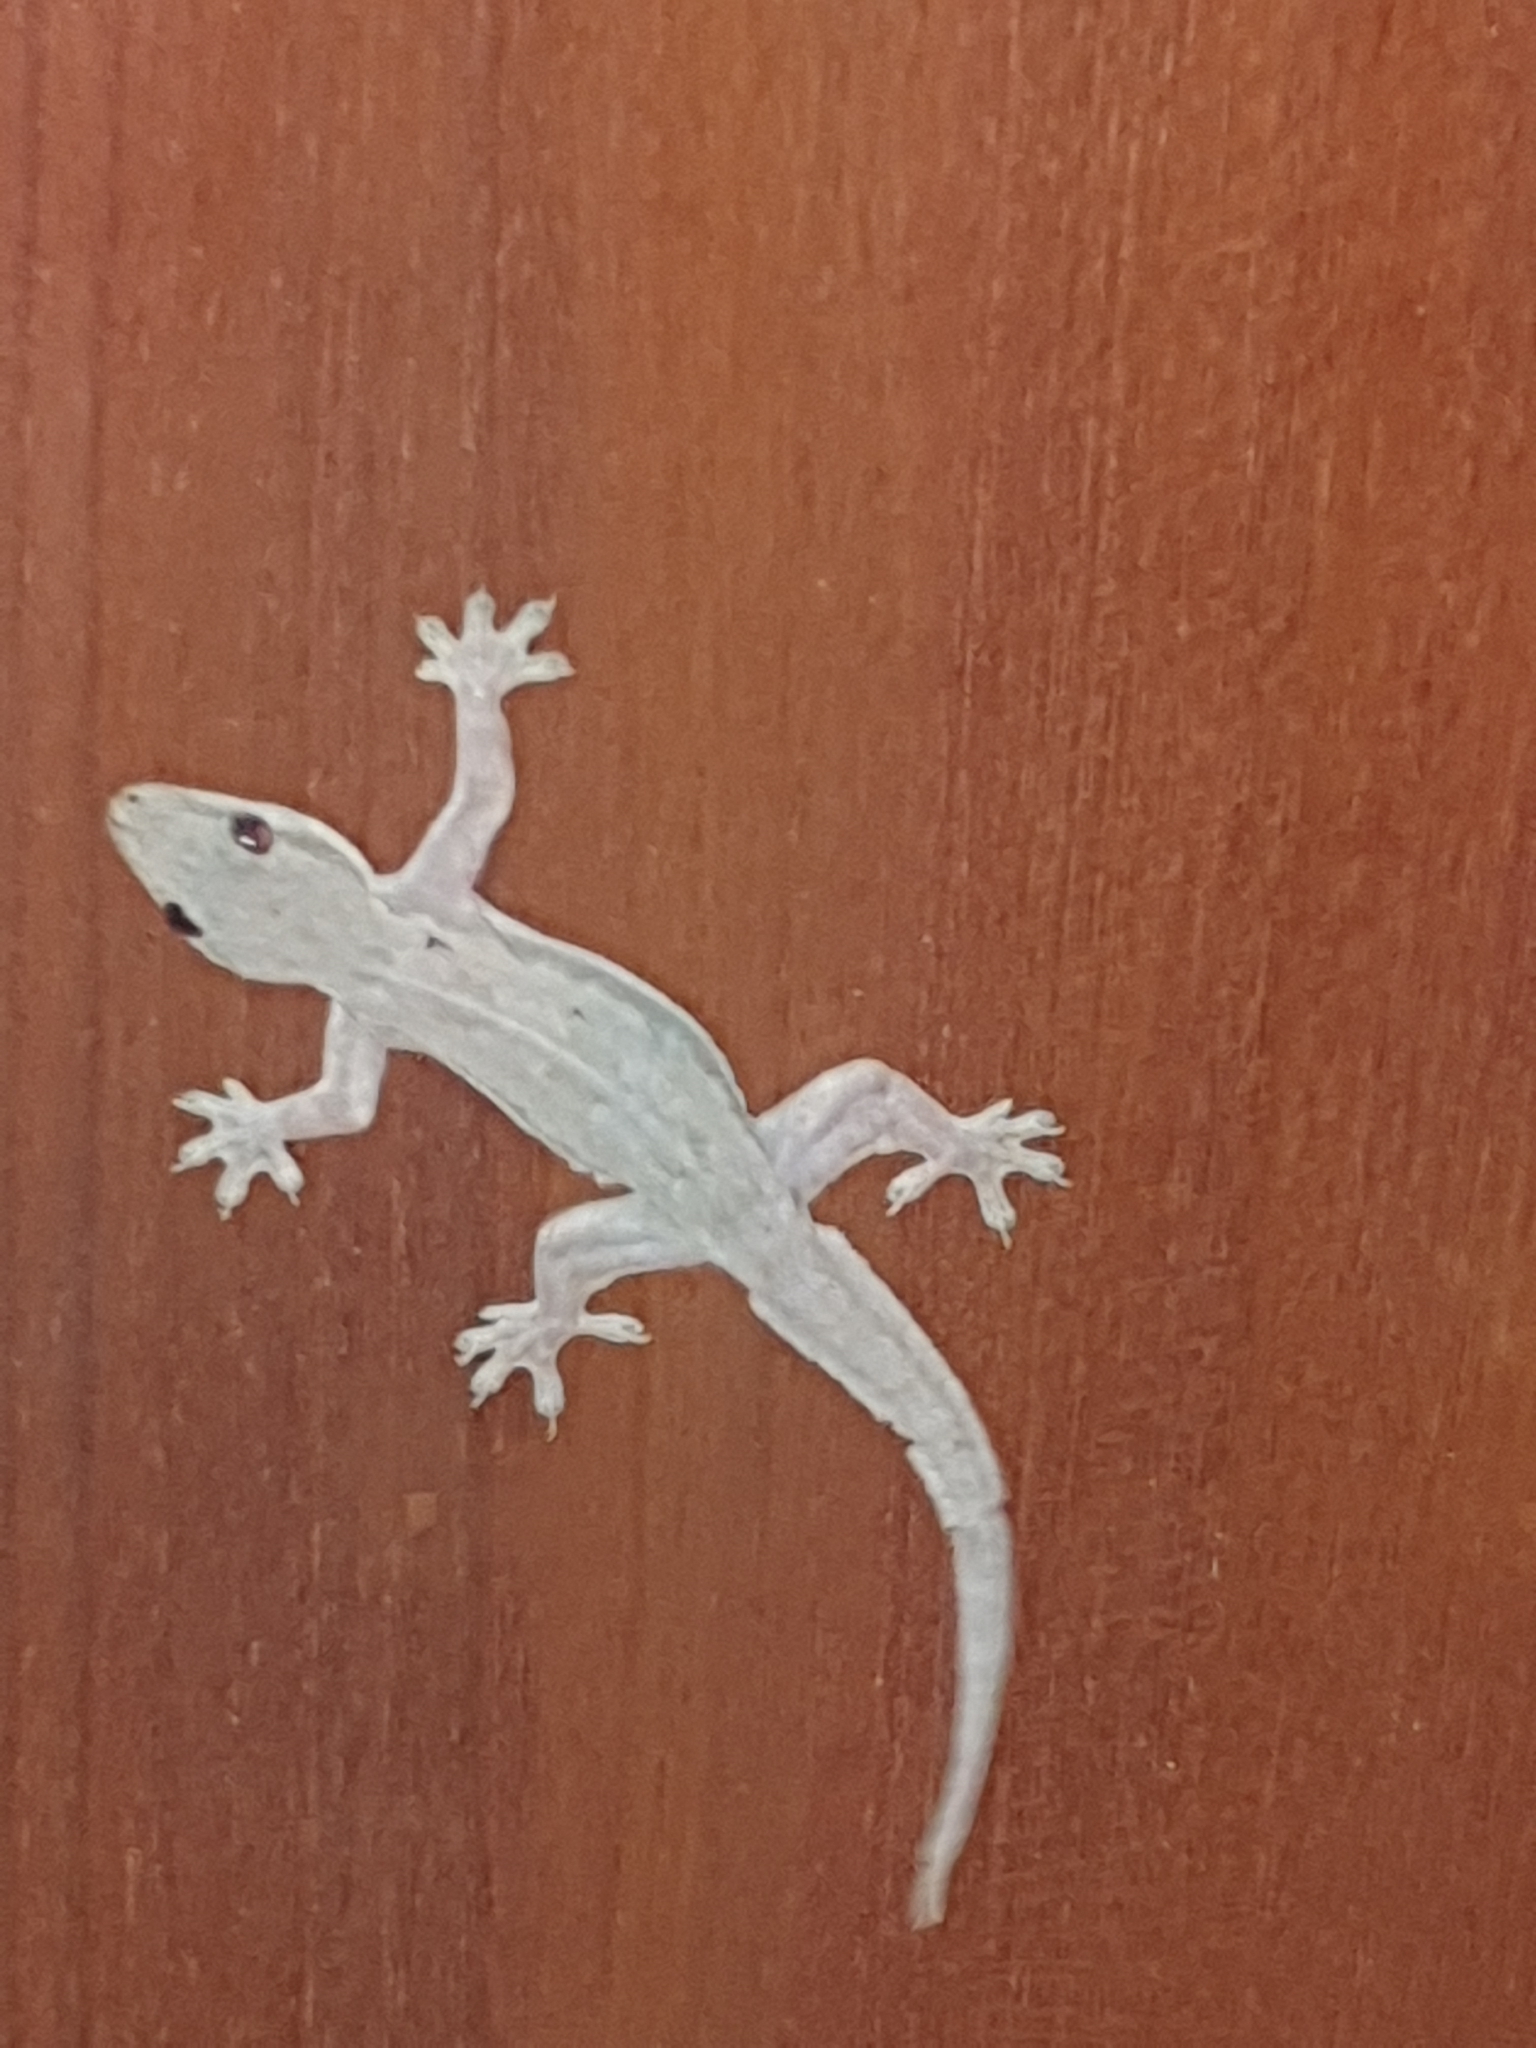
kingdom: Animalia
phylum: Chordata
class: Squamata
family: Gekkonidae
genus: Hemidactylus
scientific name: Hemidactylus platyurus
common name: Flat-tailed house gecko
